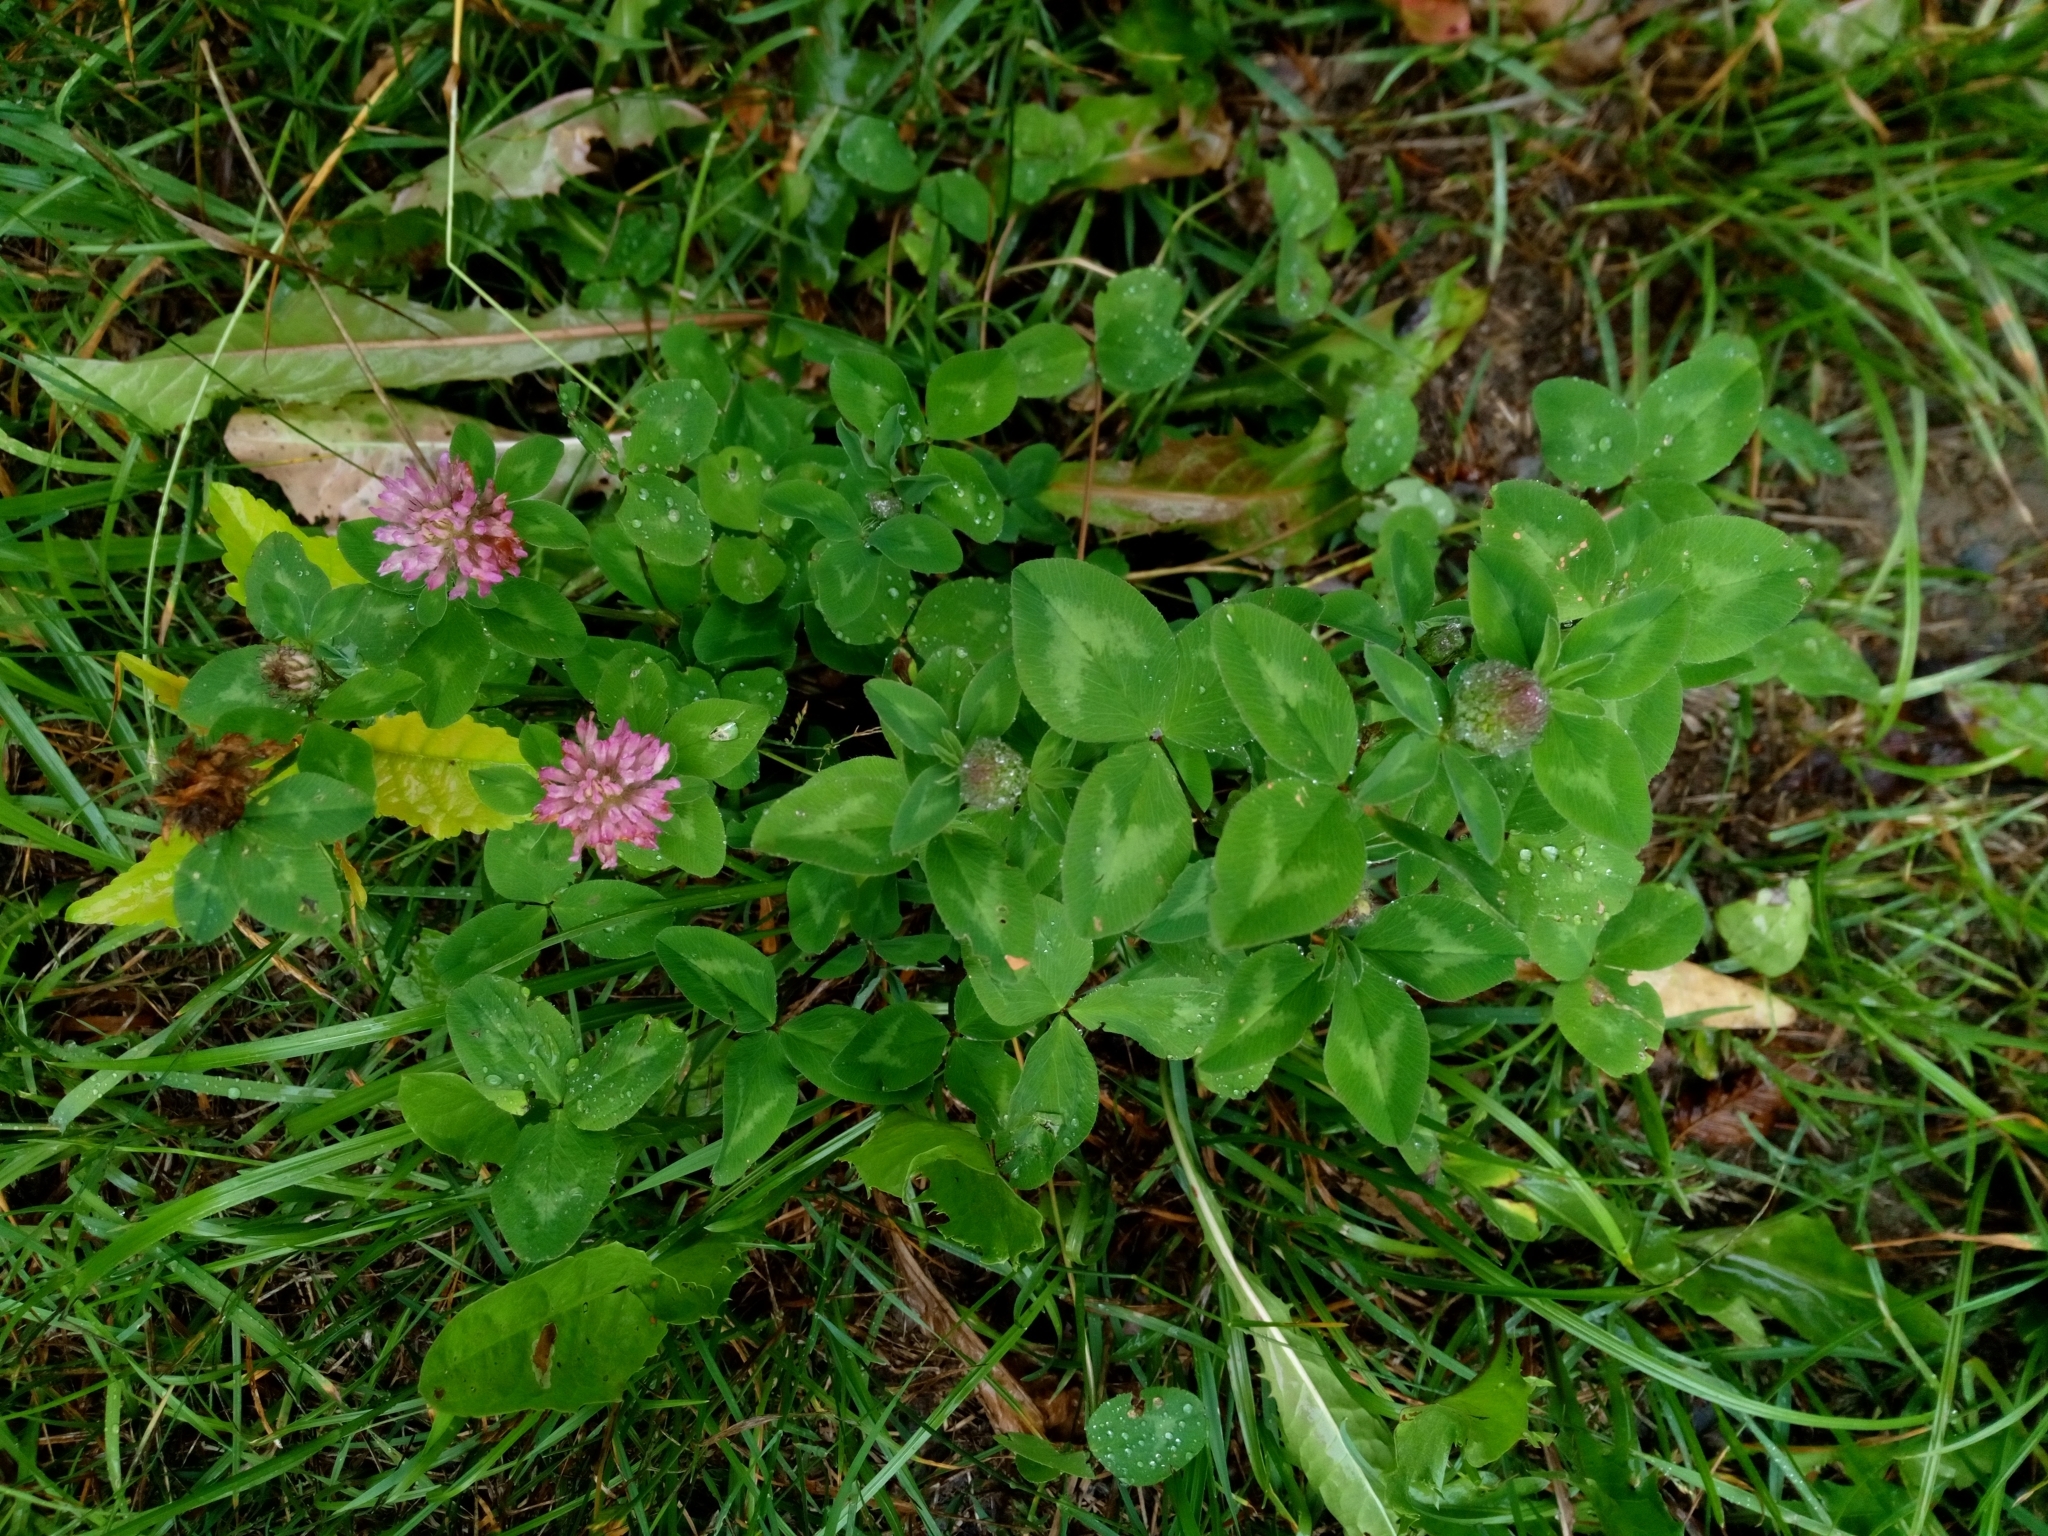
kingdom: Plantae
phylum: Tracheophyta
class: Magnoliopsida
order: Fabales
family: Fabaceae
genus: Trifolium
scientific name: Trifolium pratense
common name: Red clover
